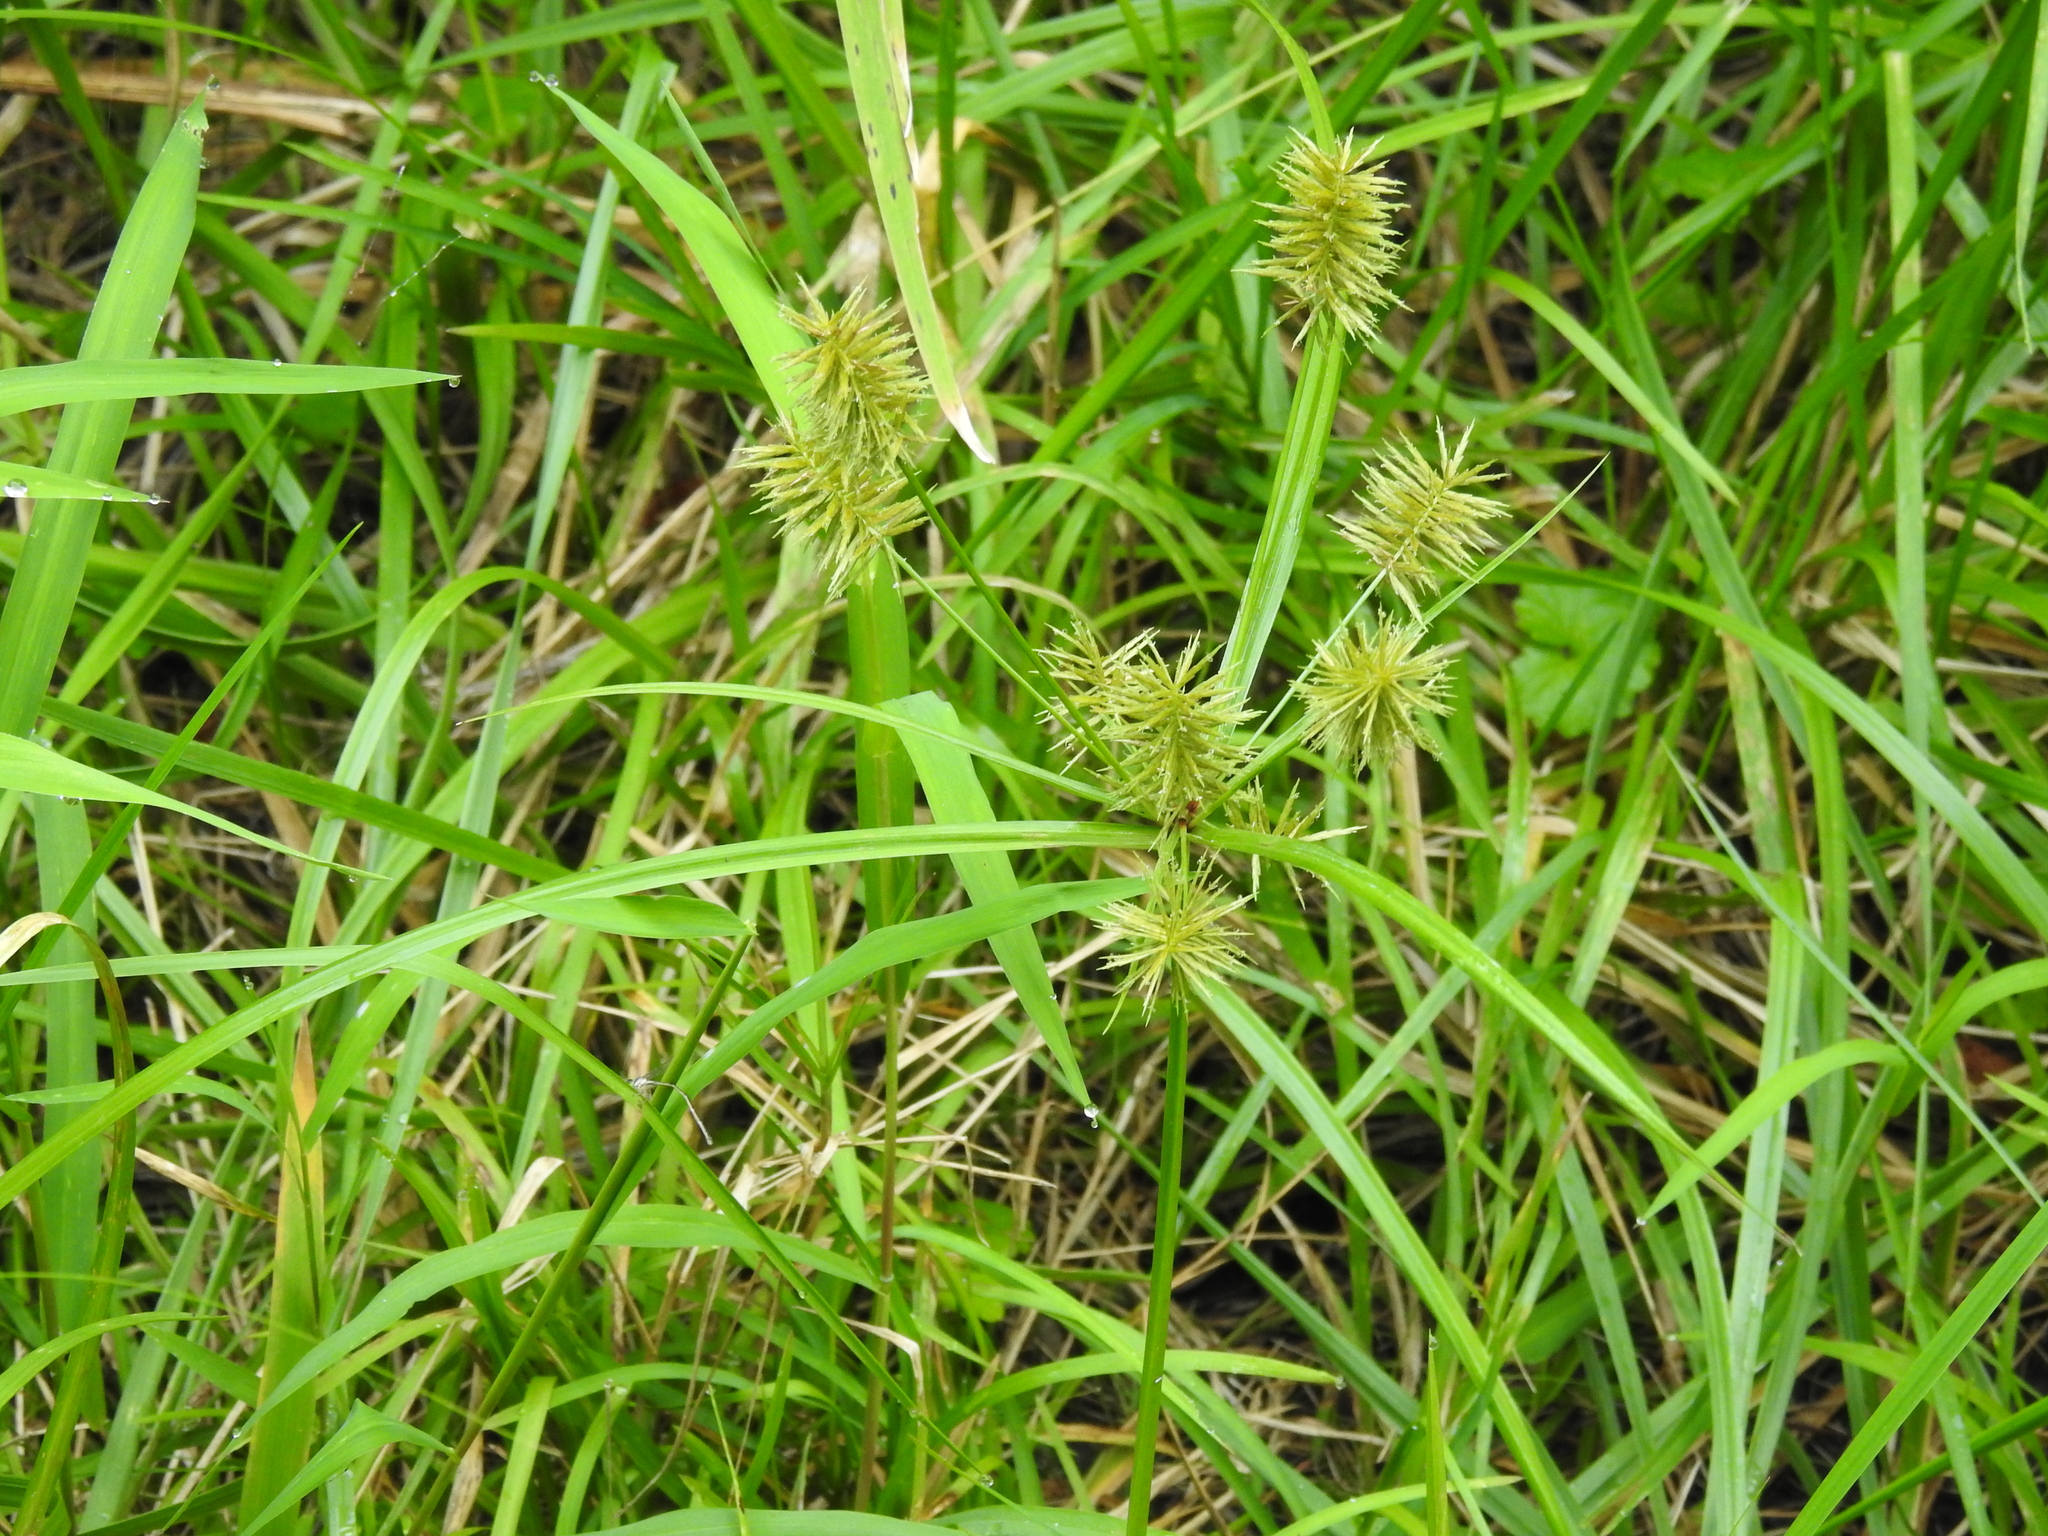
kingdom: Plantae
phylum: Tracheophyta
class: Liliopsida
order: Poales
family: Cyperaceae
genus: Cyperus
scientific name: Cyperus strigosus
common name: False nutsedge
